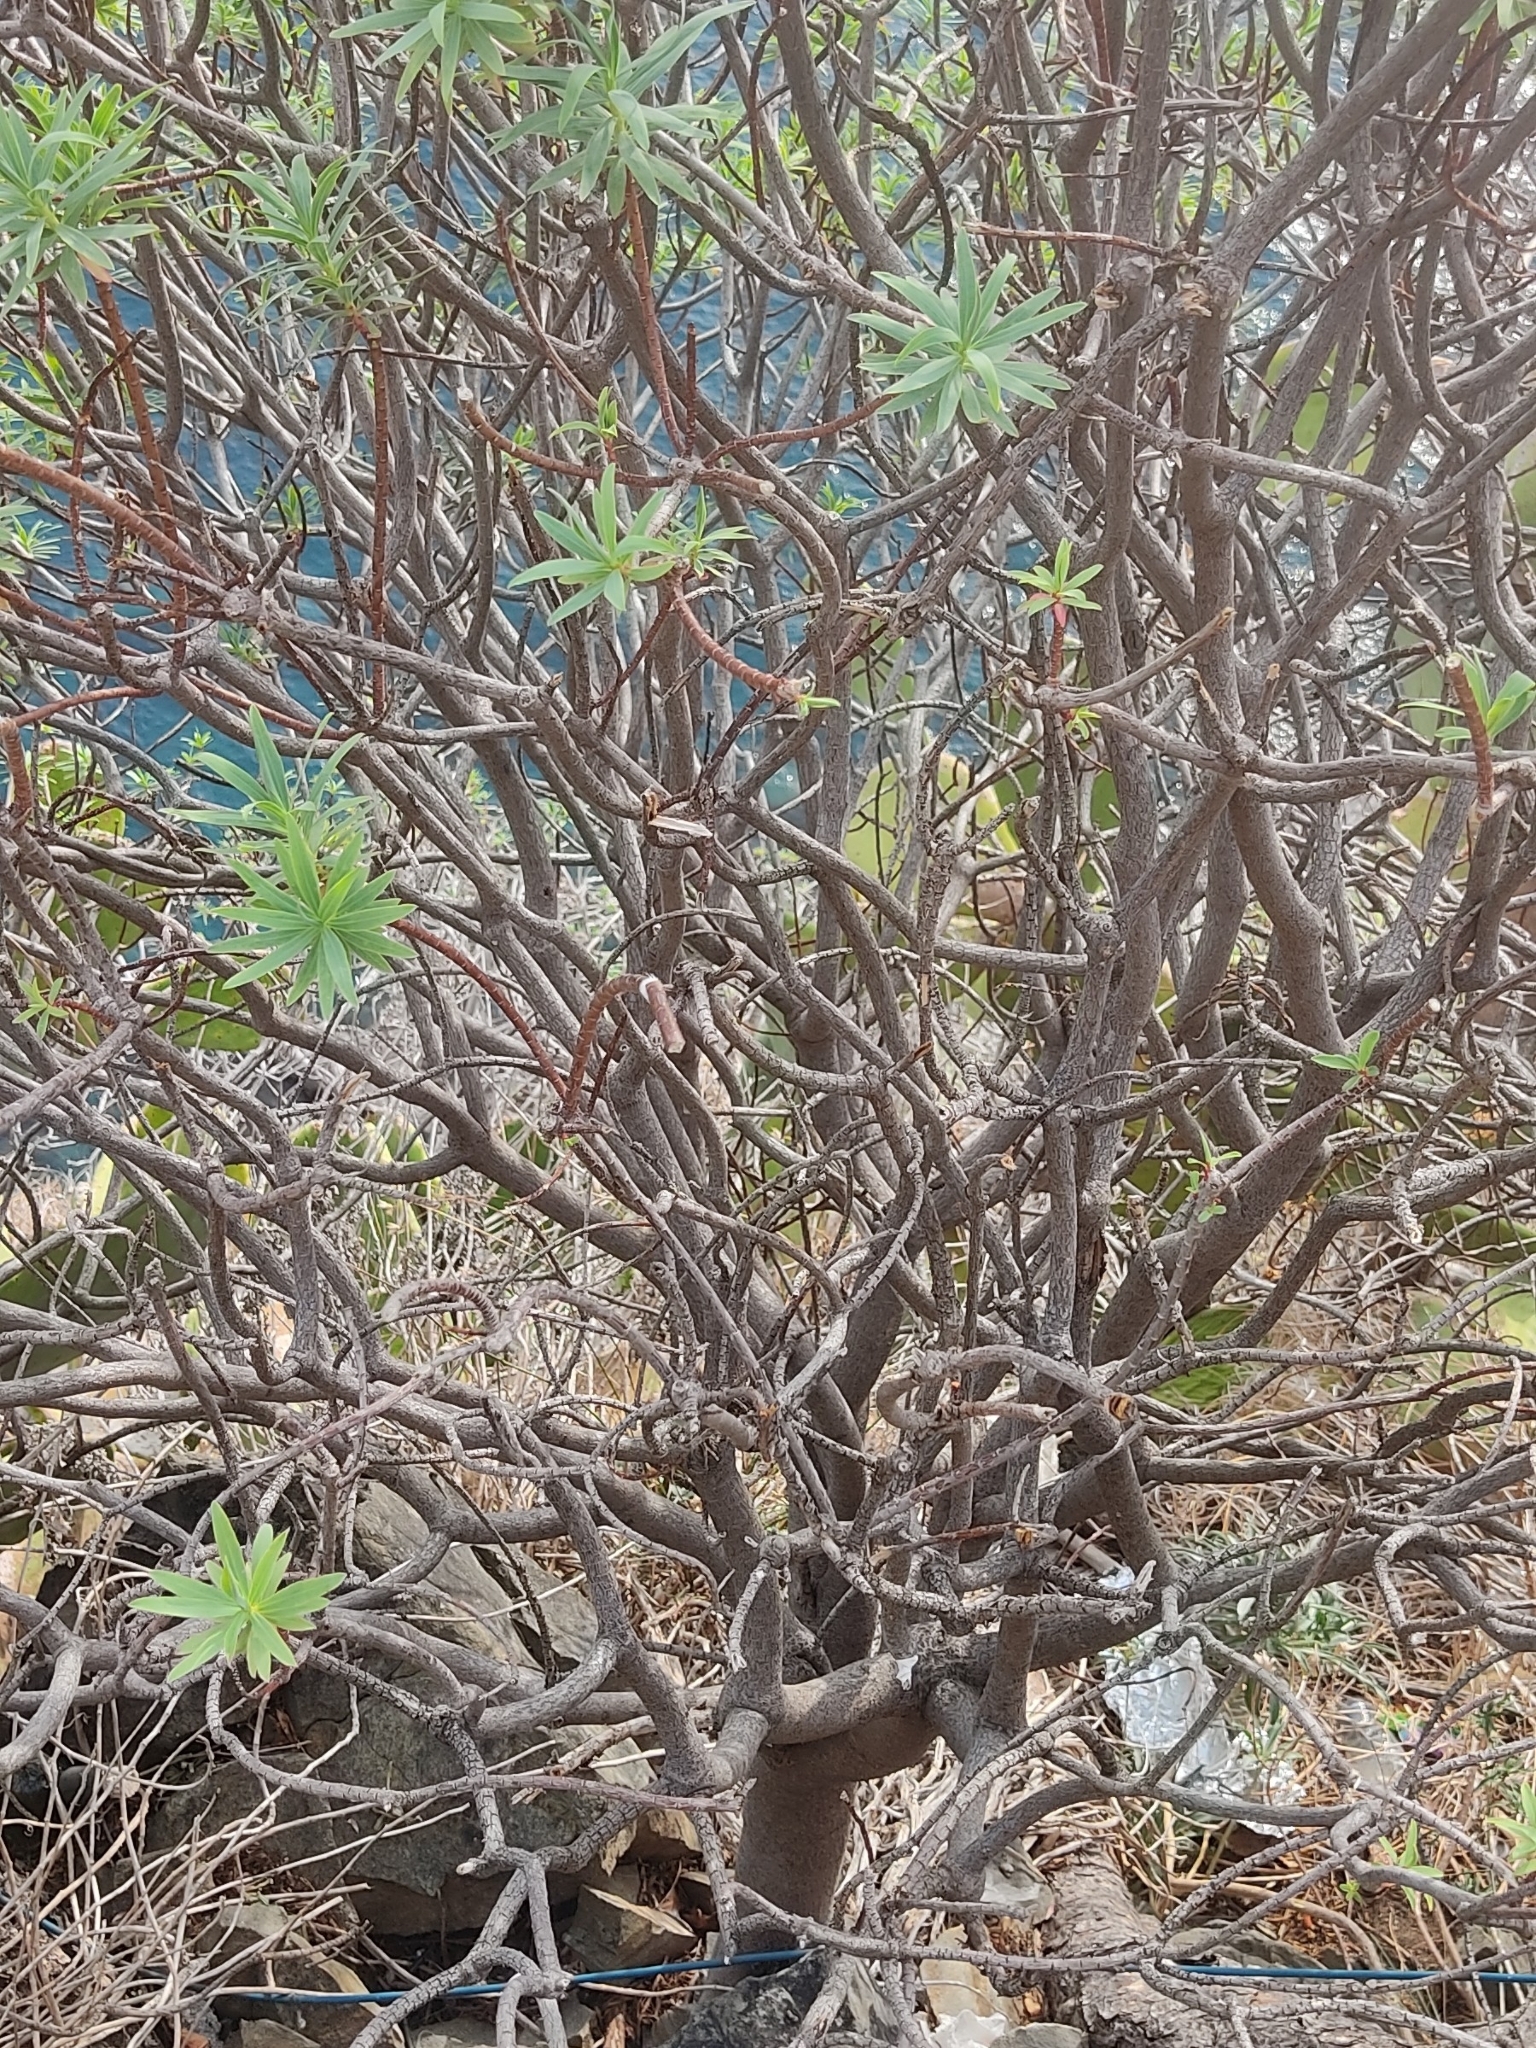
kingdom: Plantae
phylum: Tracheophyta
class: Magnoliopsida
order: Malpighiales
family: Euphorbiaceae
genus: Euphorbia
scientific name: Euphorbia dendroides
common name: Tree spurge
